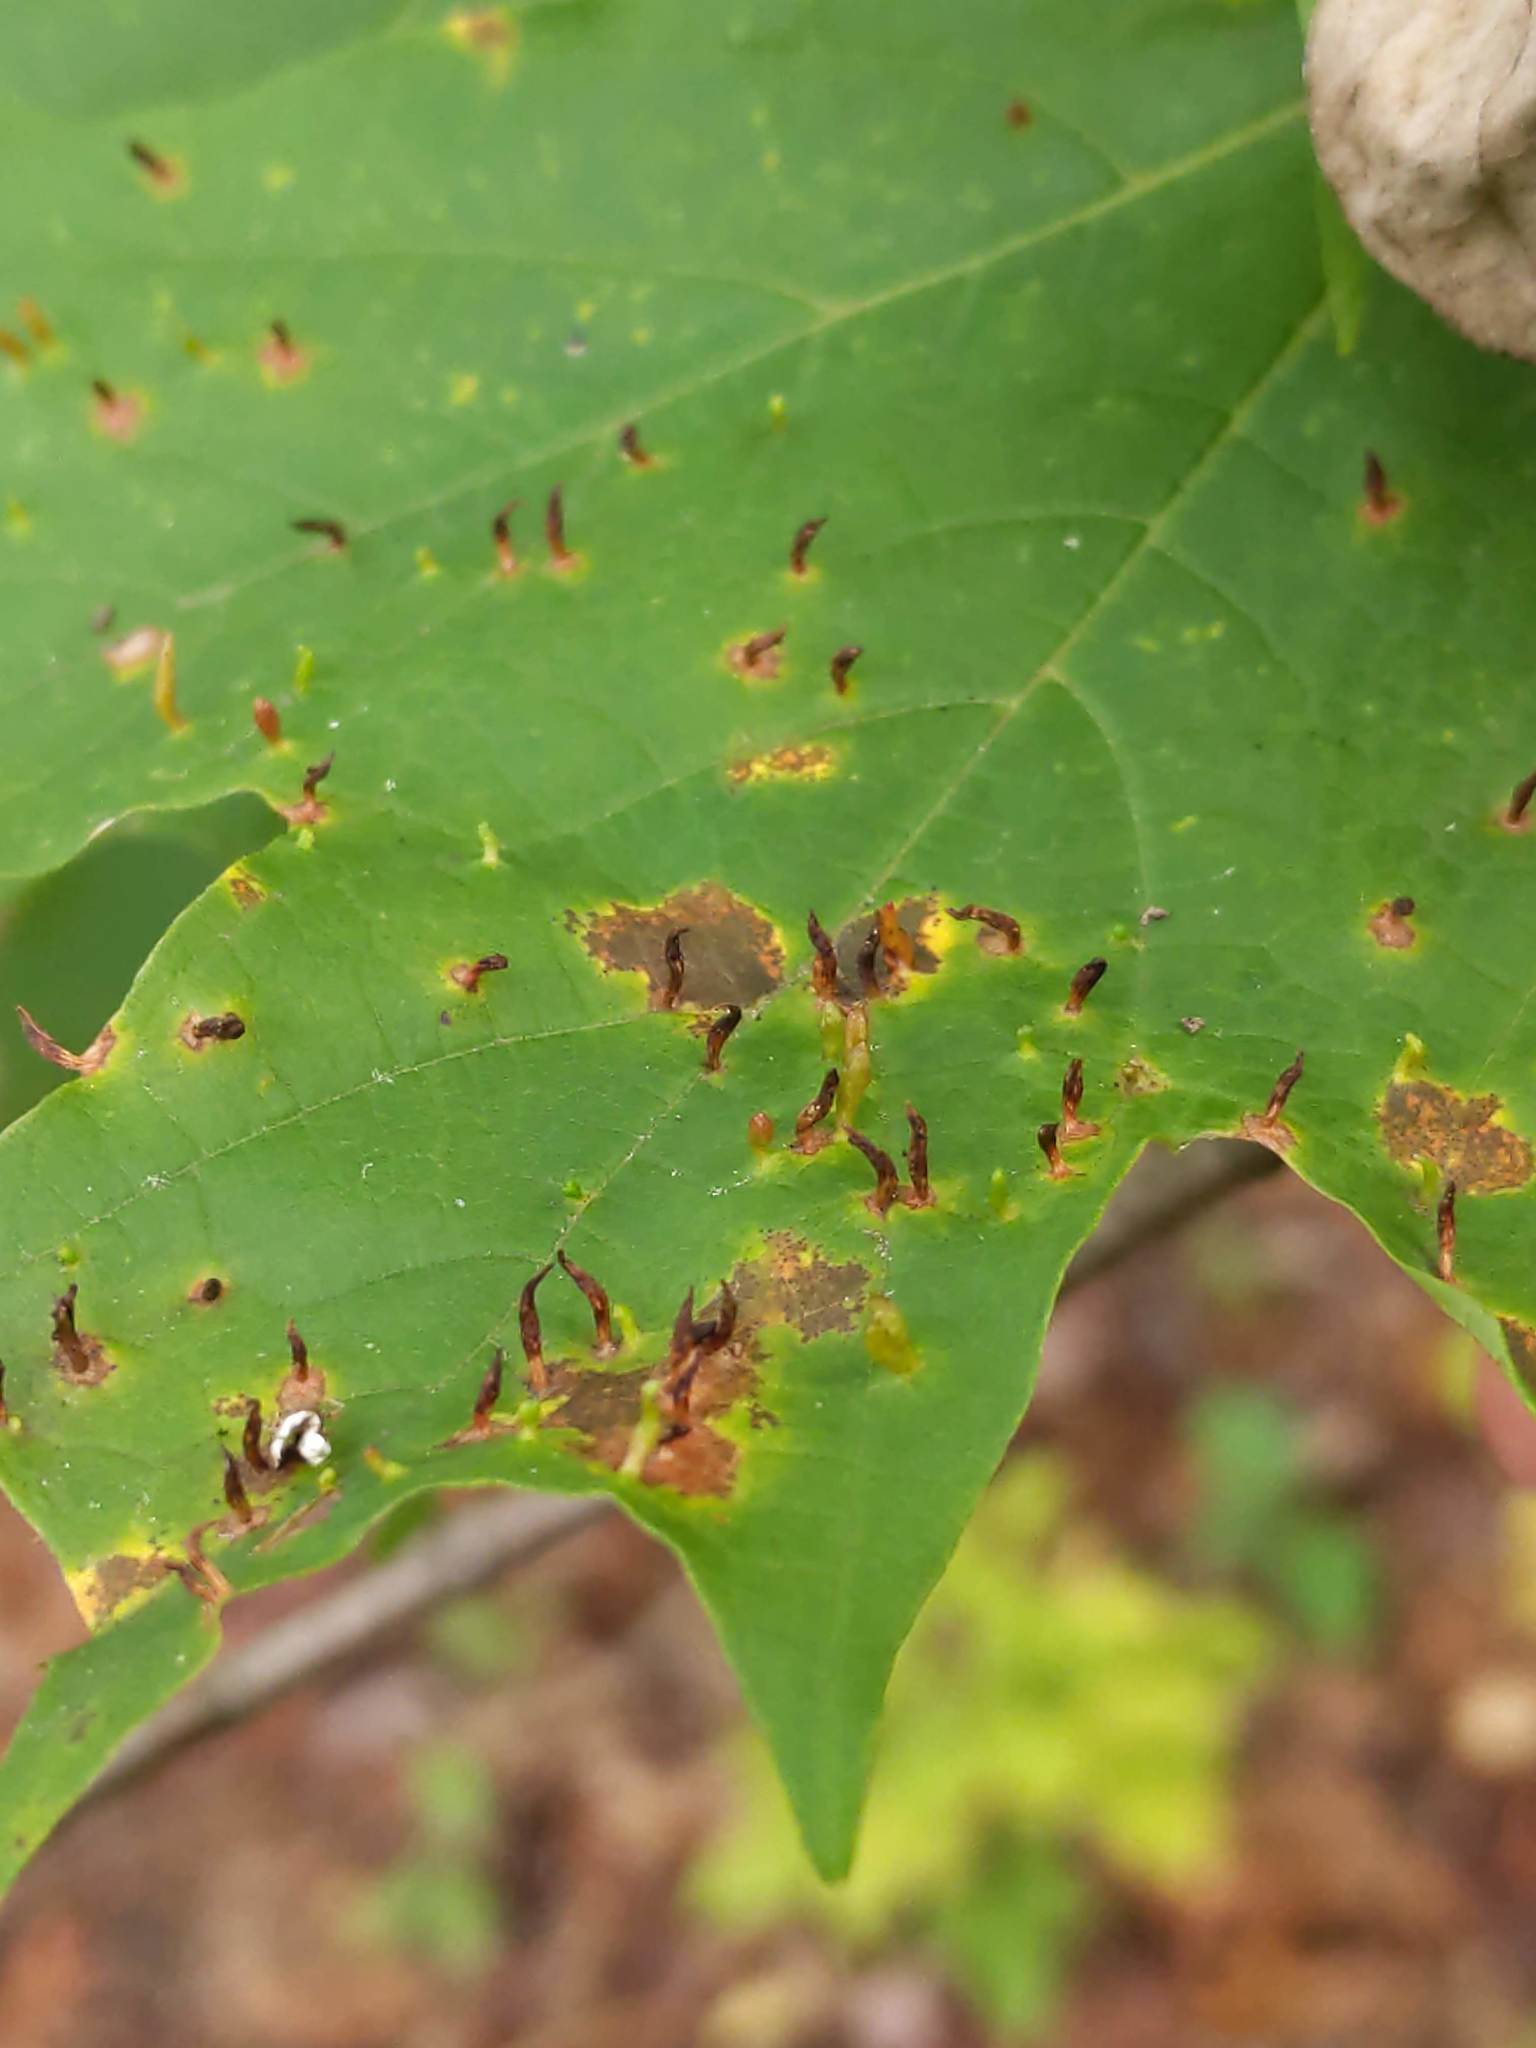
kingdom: Animalia
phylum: Arthropoda
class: Arachnida
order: Trombidiformes
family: Eriophyidae
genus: Vasates
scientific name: Vasates aceriscrumena
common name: Maple spindle gall mite
